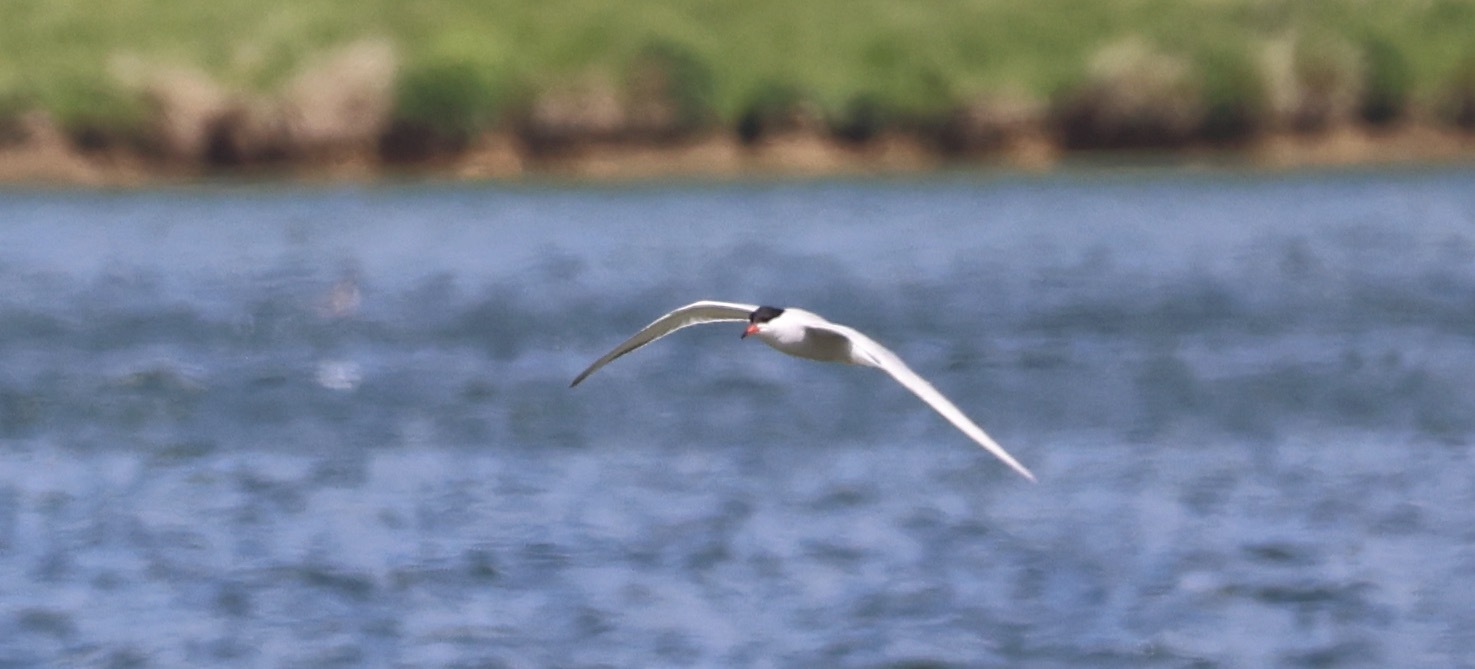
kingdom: Animalia
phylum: Chordata
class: Aves
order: Charadriiformes
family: Laridae
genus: Sterna
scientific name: Sterna hirundo
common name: Common tern
